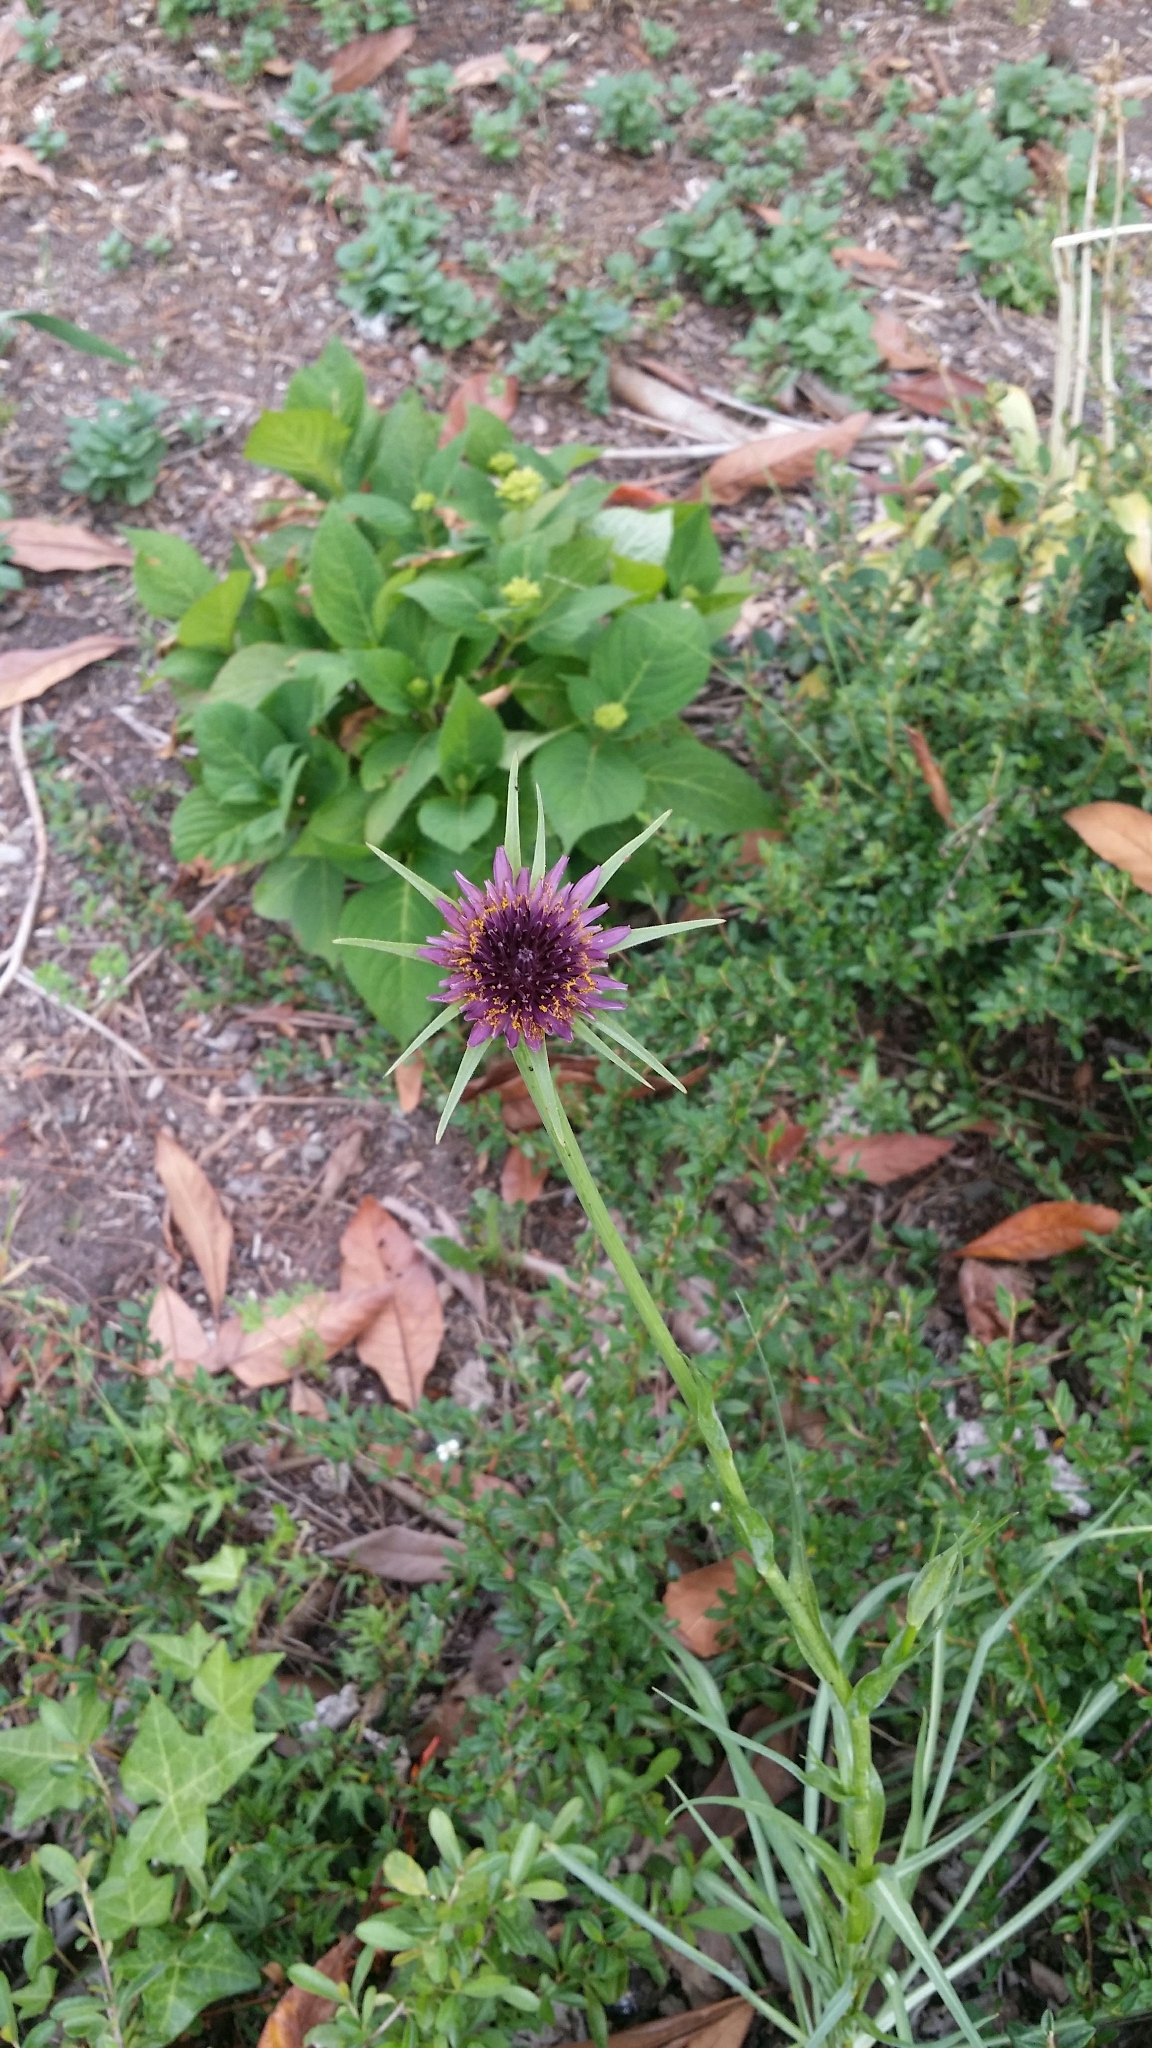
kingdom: Plantae
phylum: Tracheophyta
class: Magnoliopsida
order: Asterales
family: Asteraceae
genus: Tragopogon
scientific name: Tragopogon porrifolius
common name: Salsify
